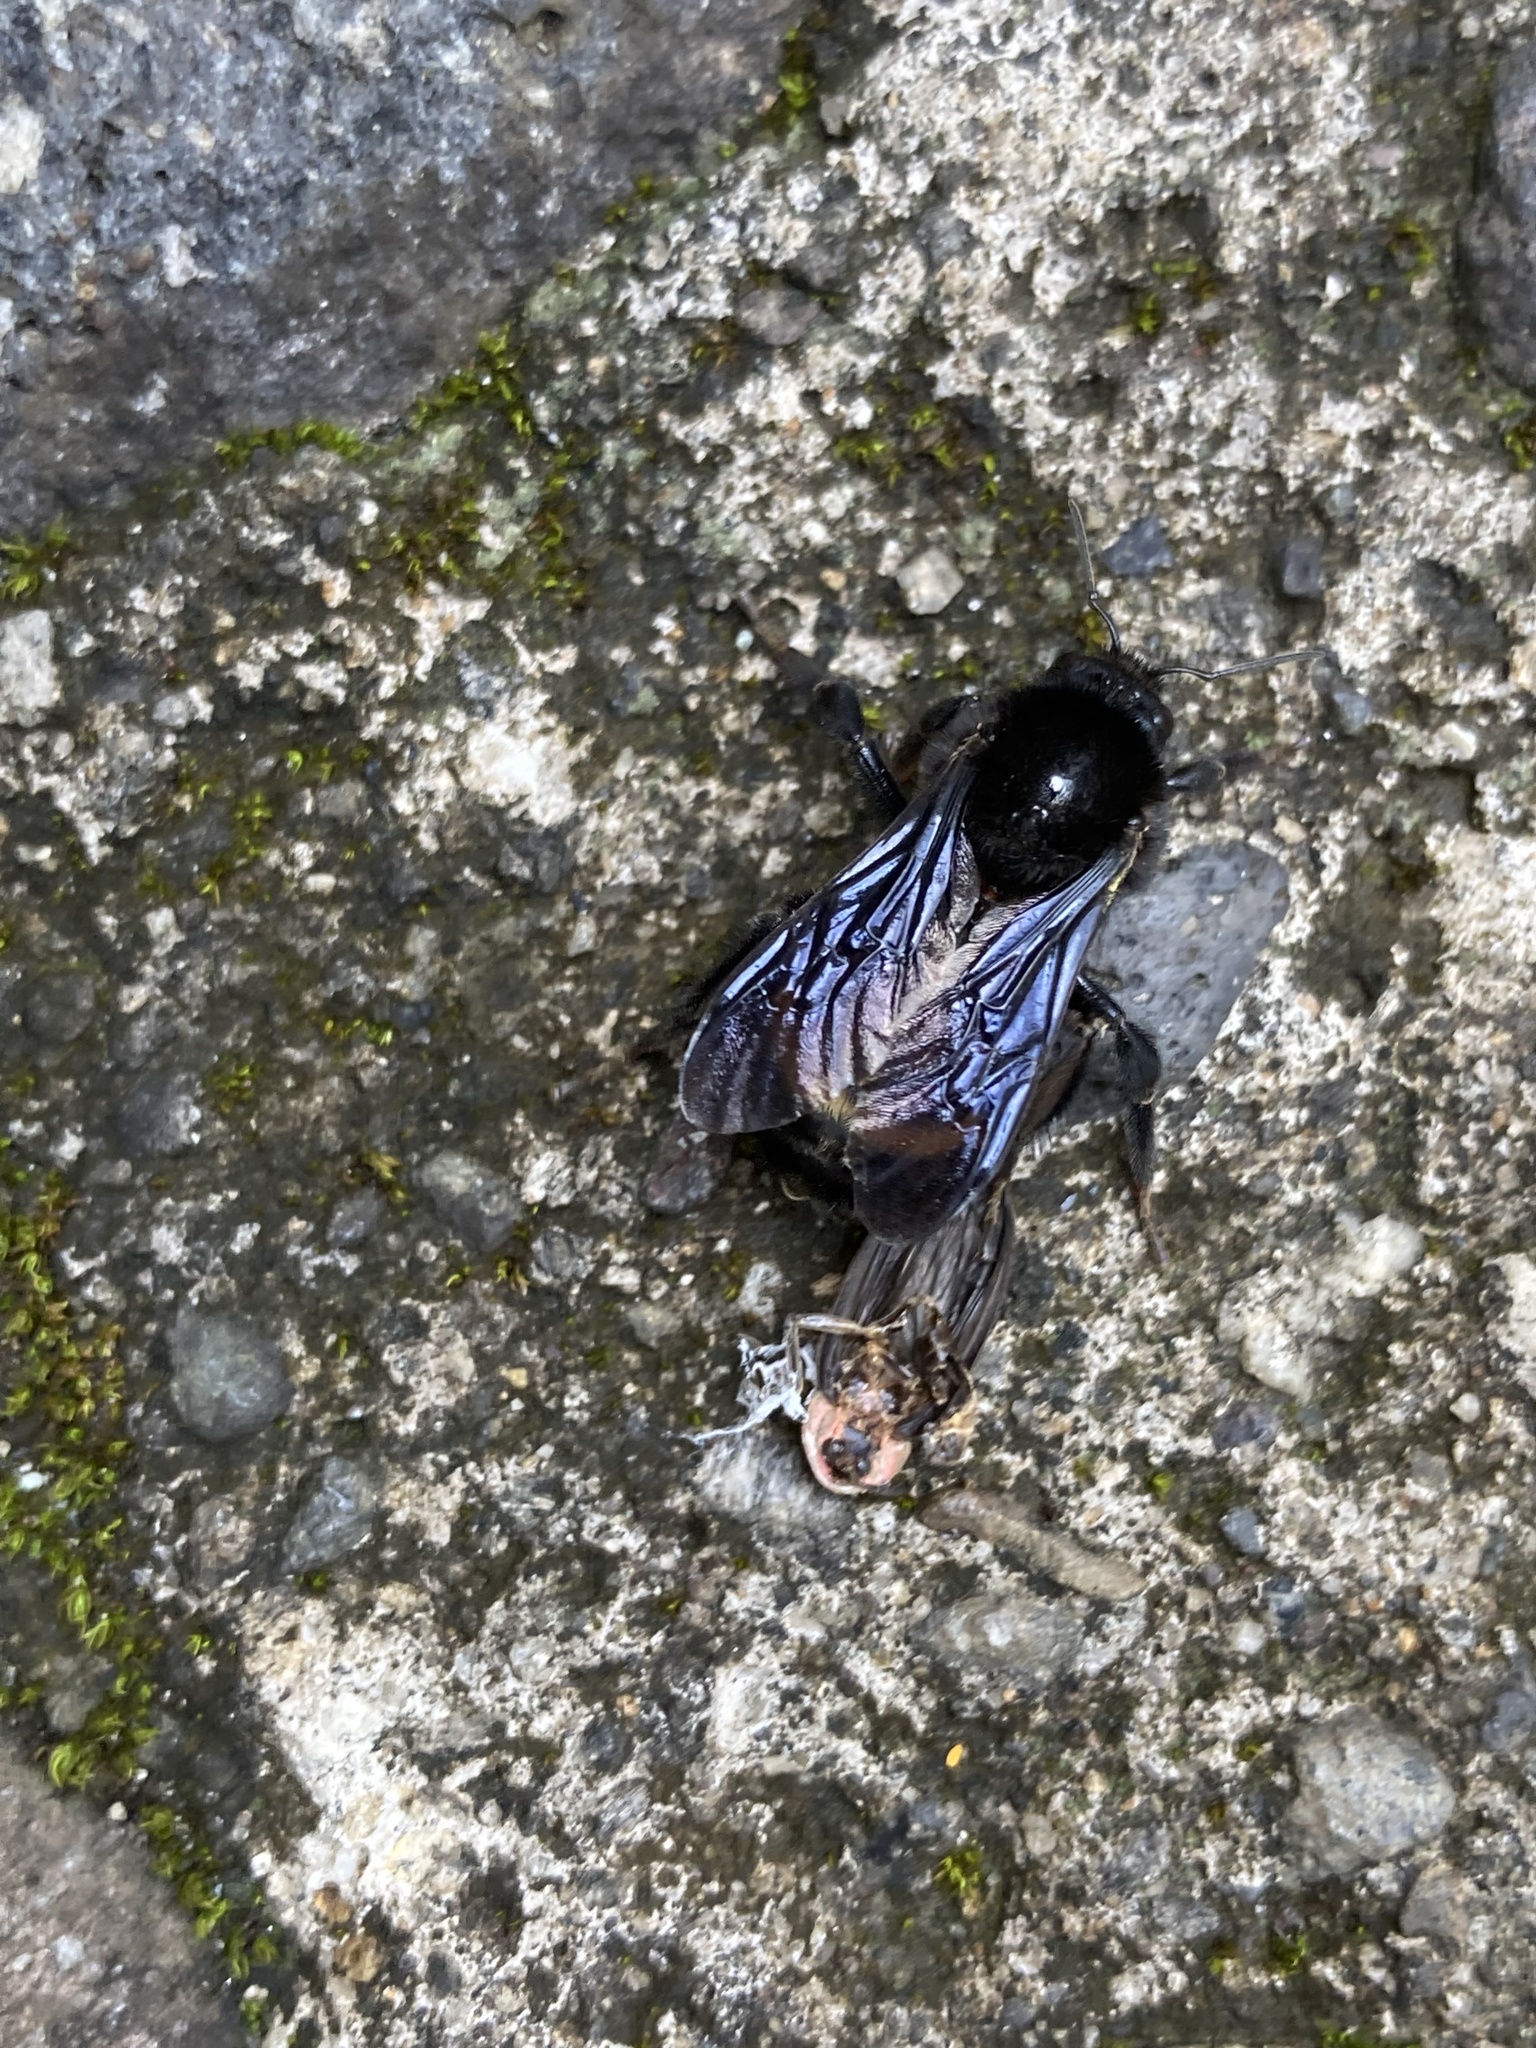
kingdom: Animalia
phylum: Arthropoda
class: Insecta
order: Hymenoptera
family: Apidae
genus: Bombus
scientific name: Bombus mexicanus
